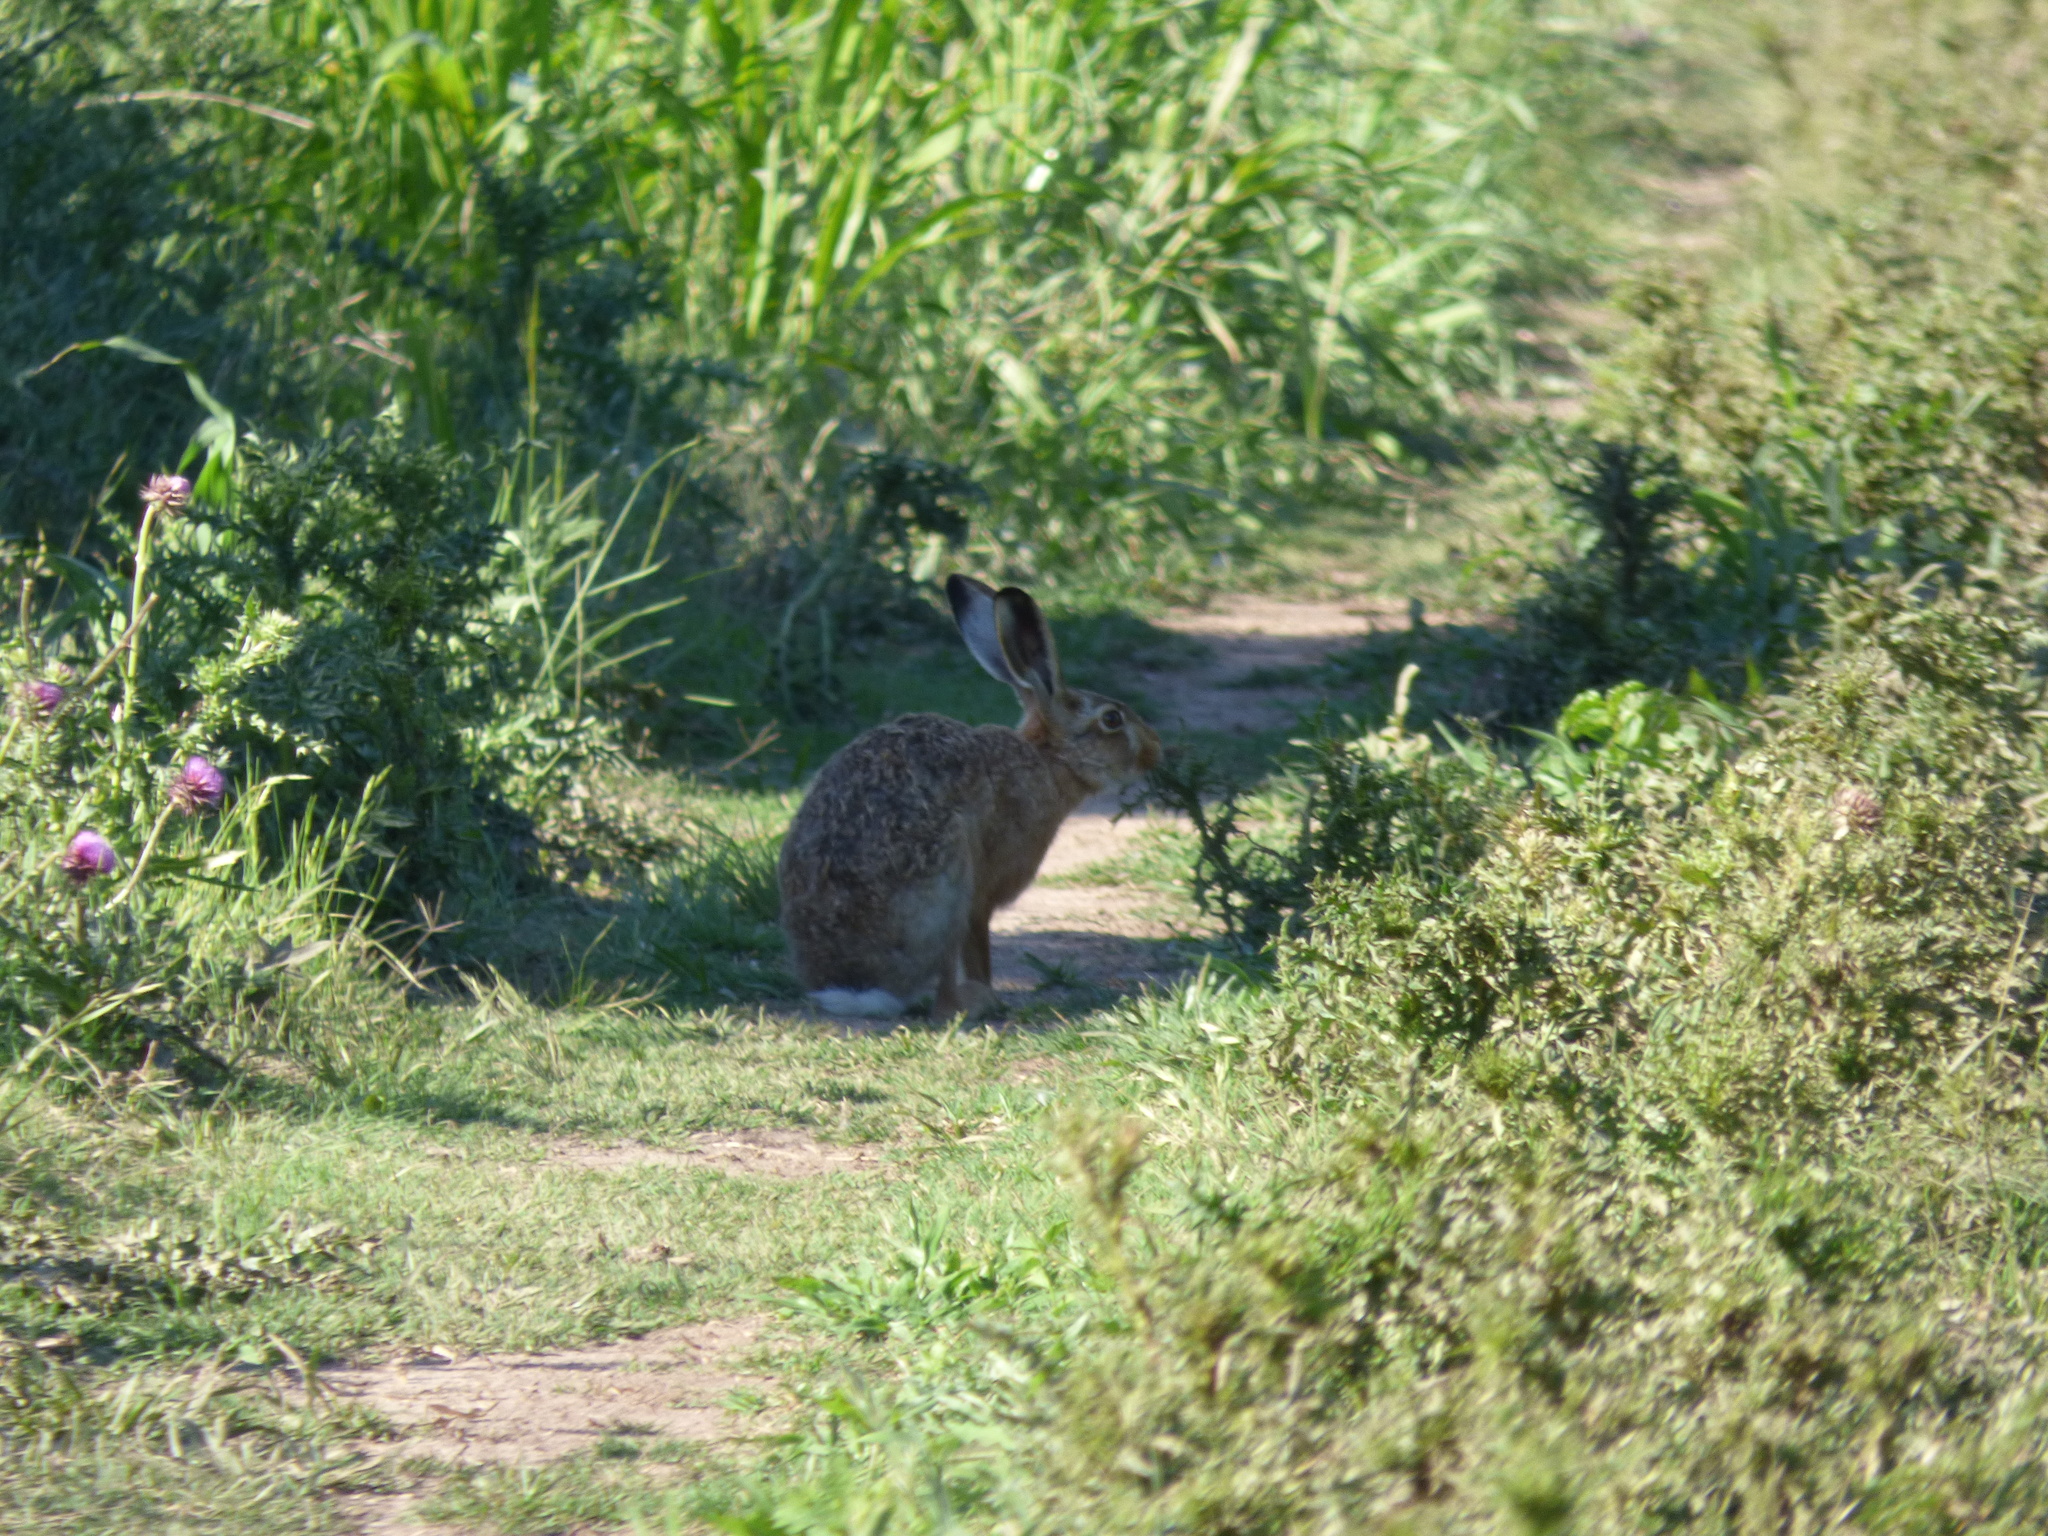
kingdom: Animalia
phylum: Chordata
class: Mammalia
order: Lagomorpha
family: Leporidae
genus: Lepus
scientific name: Lepus europaeus
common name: European hare
